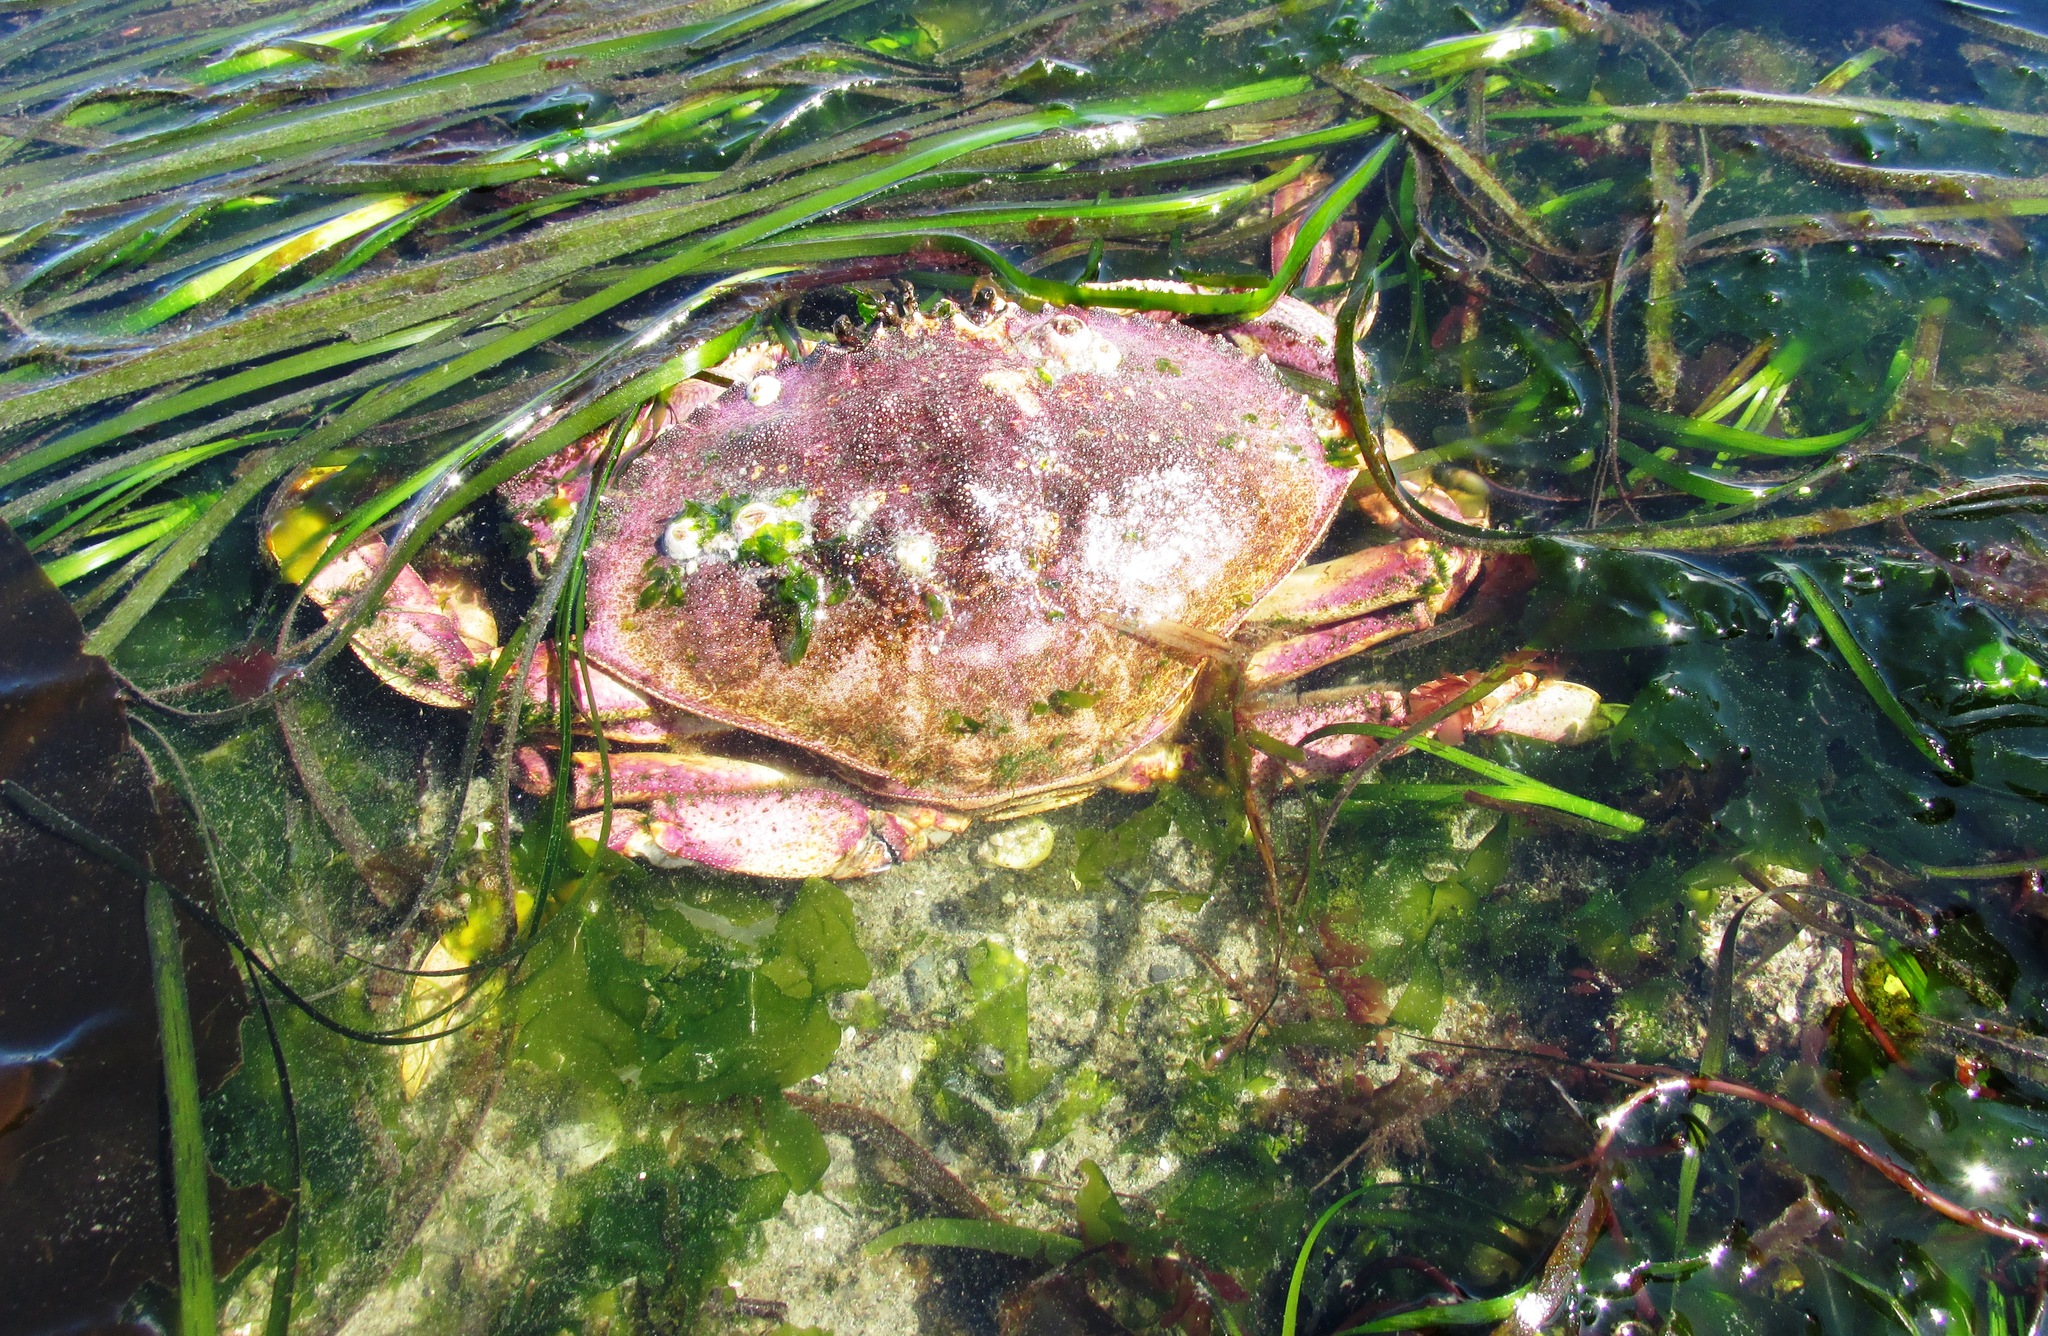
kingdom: Animalia
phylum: Arthropoda
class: Malacostraca
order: Decapoda
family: Cancridae
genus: Metacarcinus
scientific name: Metacarcinus magister
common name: Californian crab
